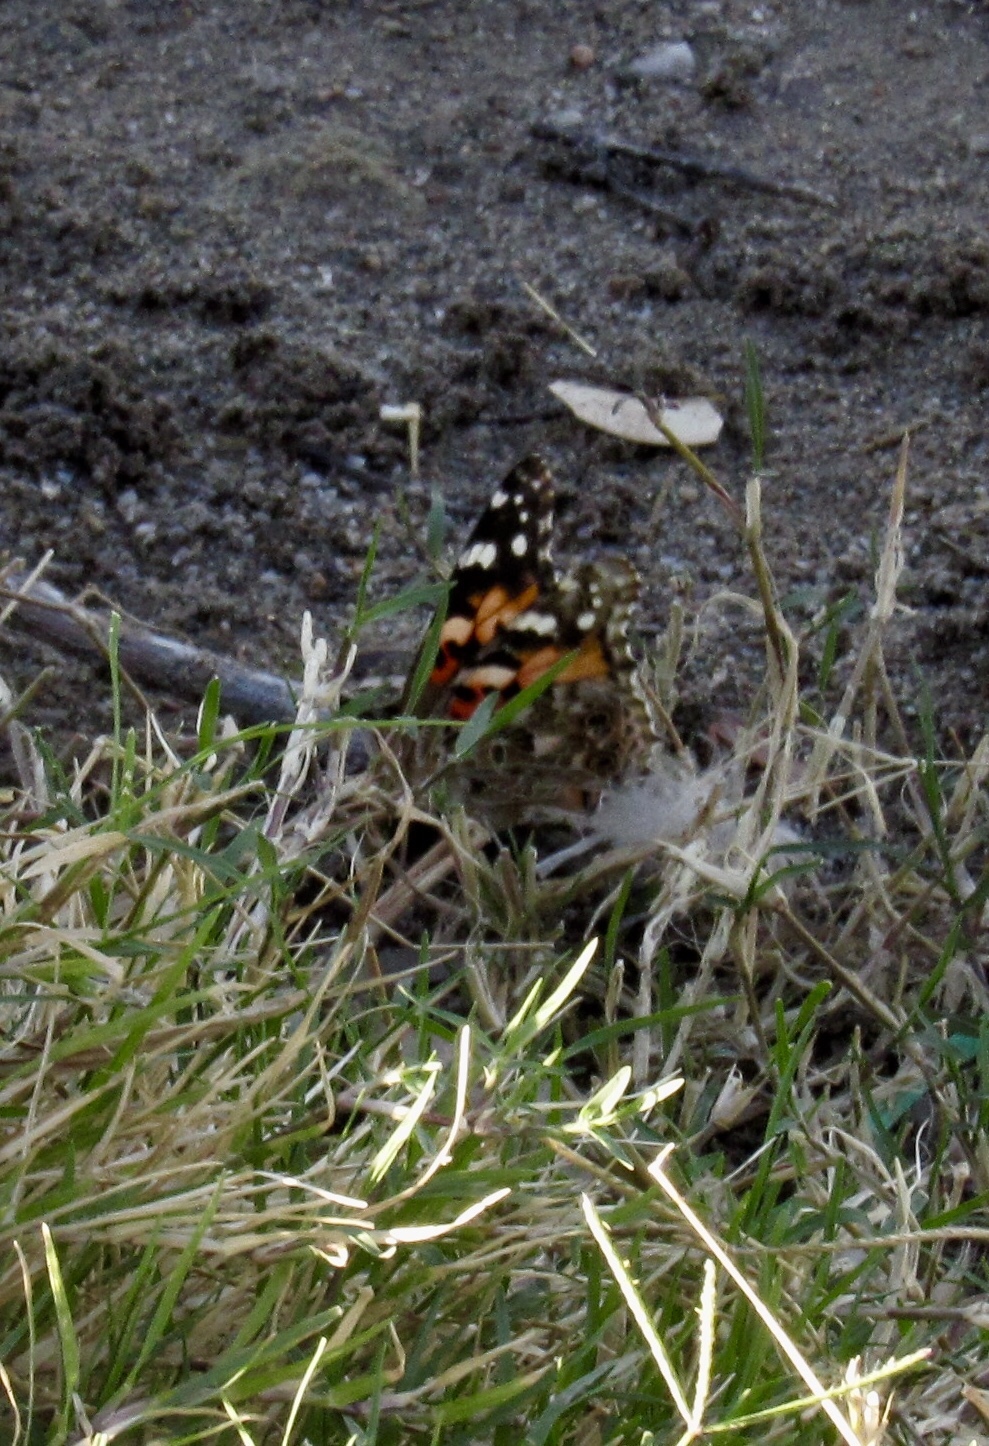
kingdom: Animalia
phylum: Arthropoda
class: Insecta
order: Lepidoptera
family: Nymphalidae
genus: Vanessa
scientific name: Vanessa cardui
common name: Painted lady
